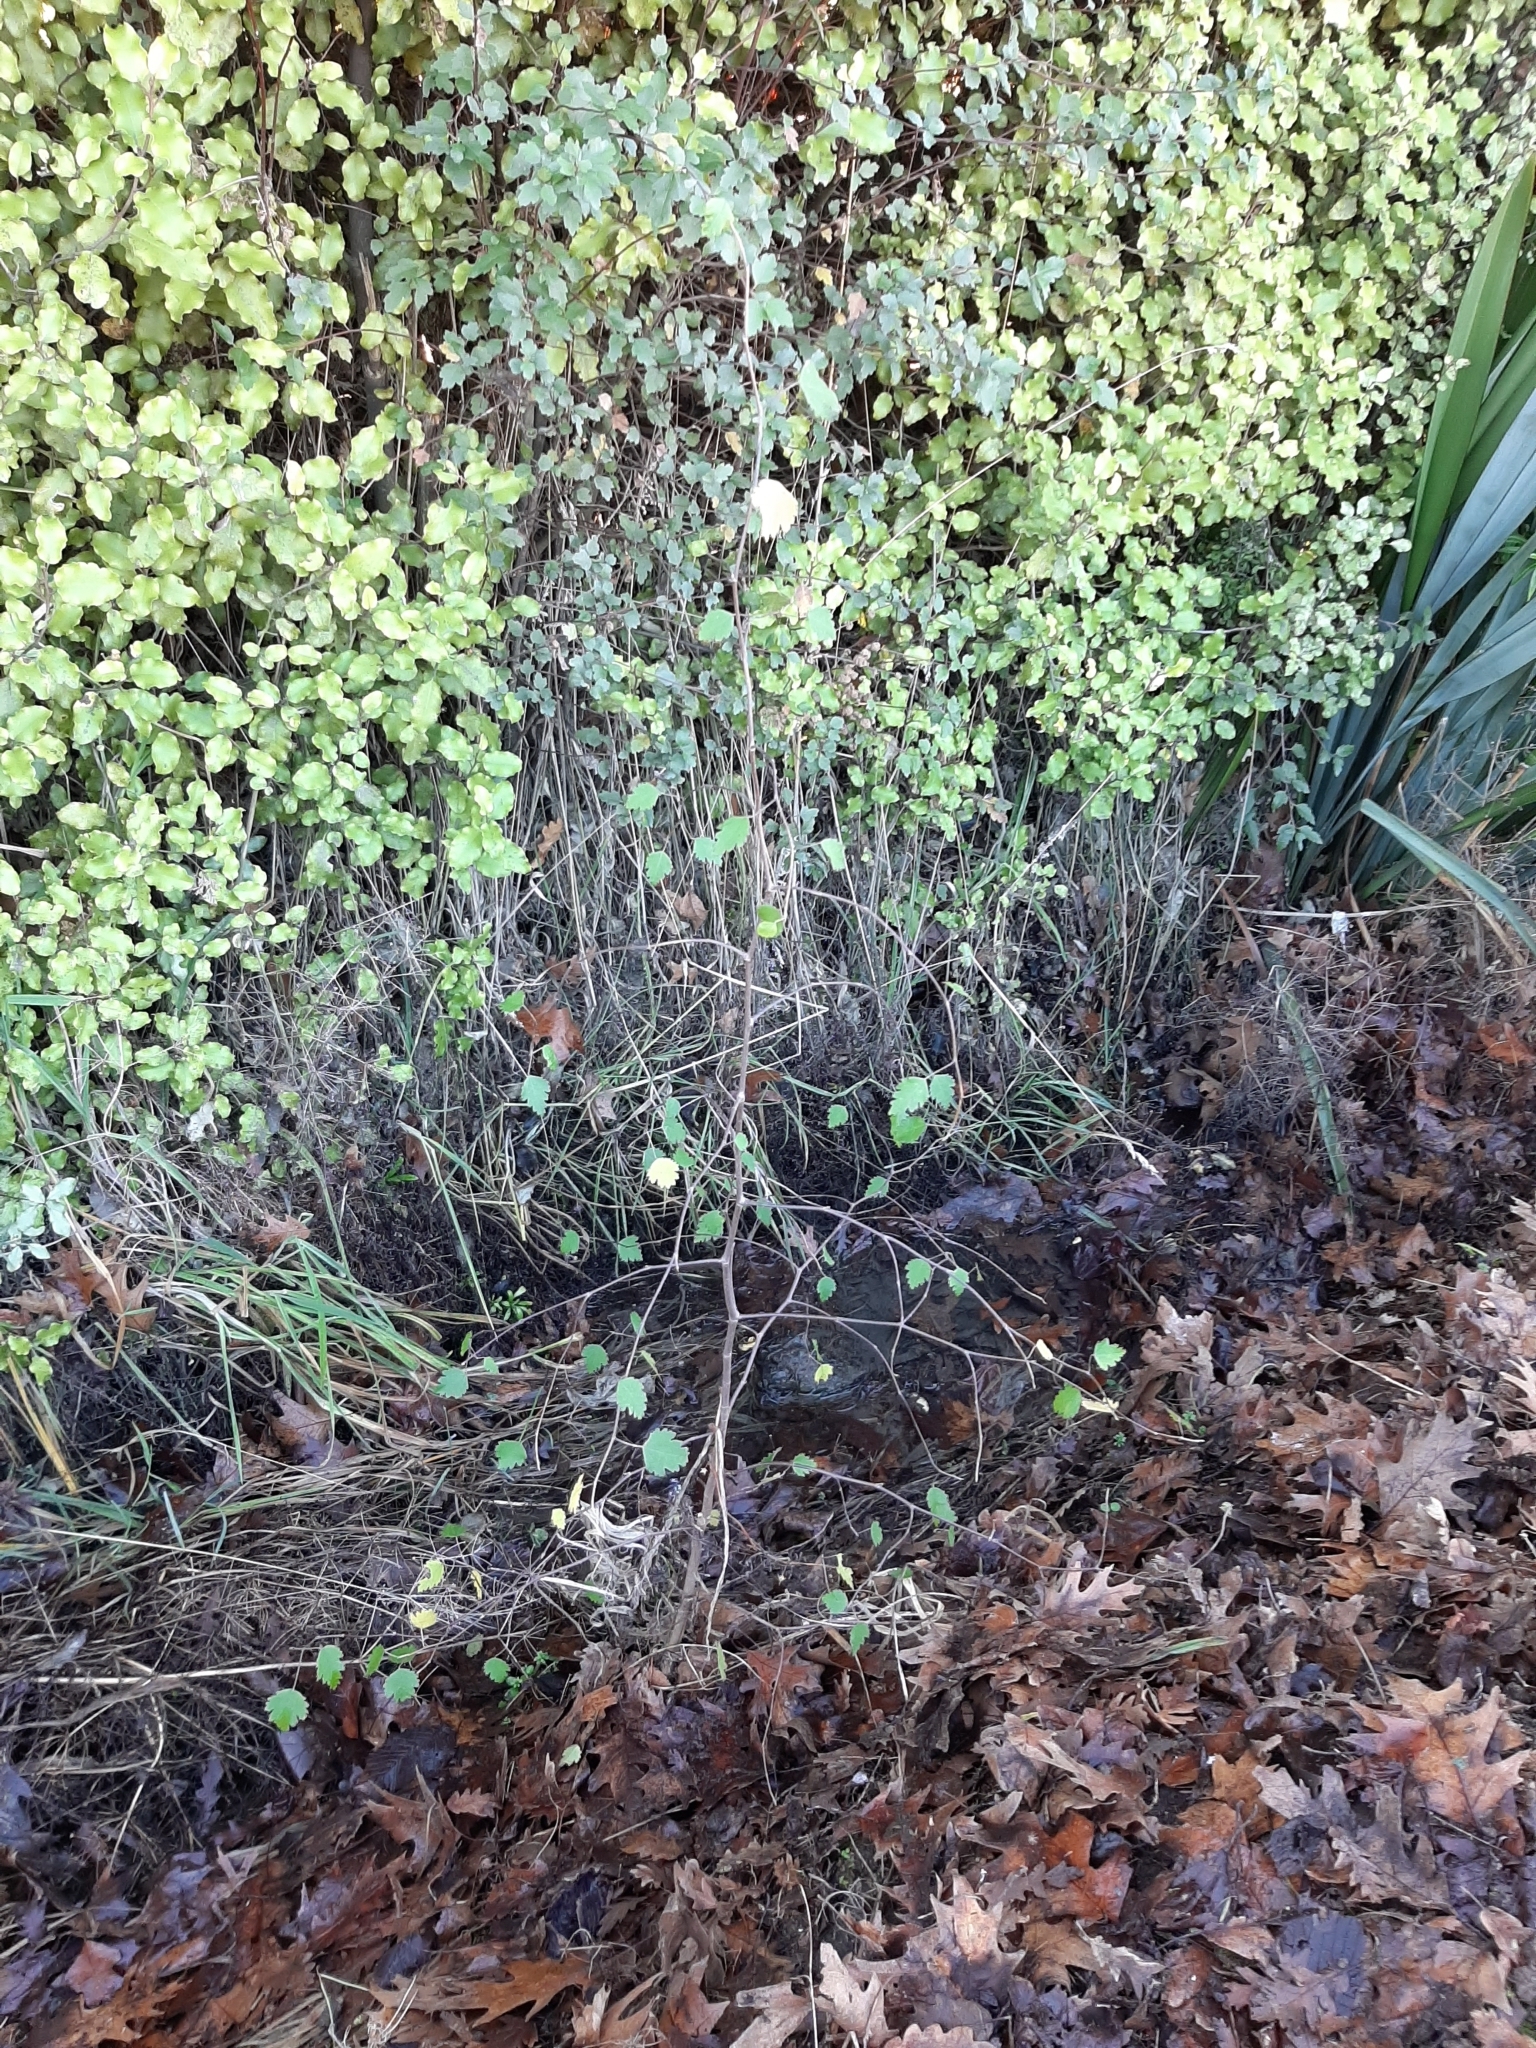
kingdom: Plantae
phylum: Tracheophyta
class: Magnoliopsida
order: Malvales
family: Malvaceae
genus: Plagianthus
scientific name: Plagianthus regius
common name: Manatu
